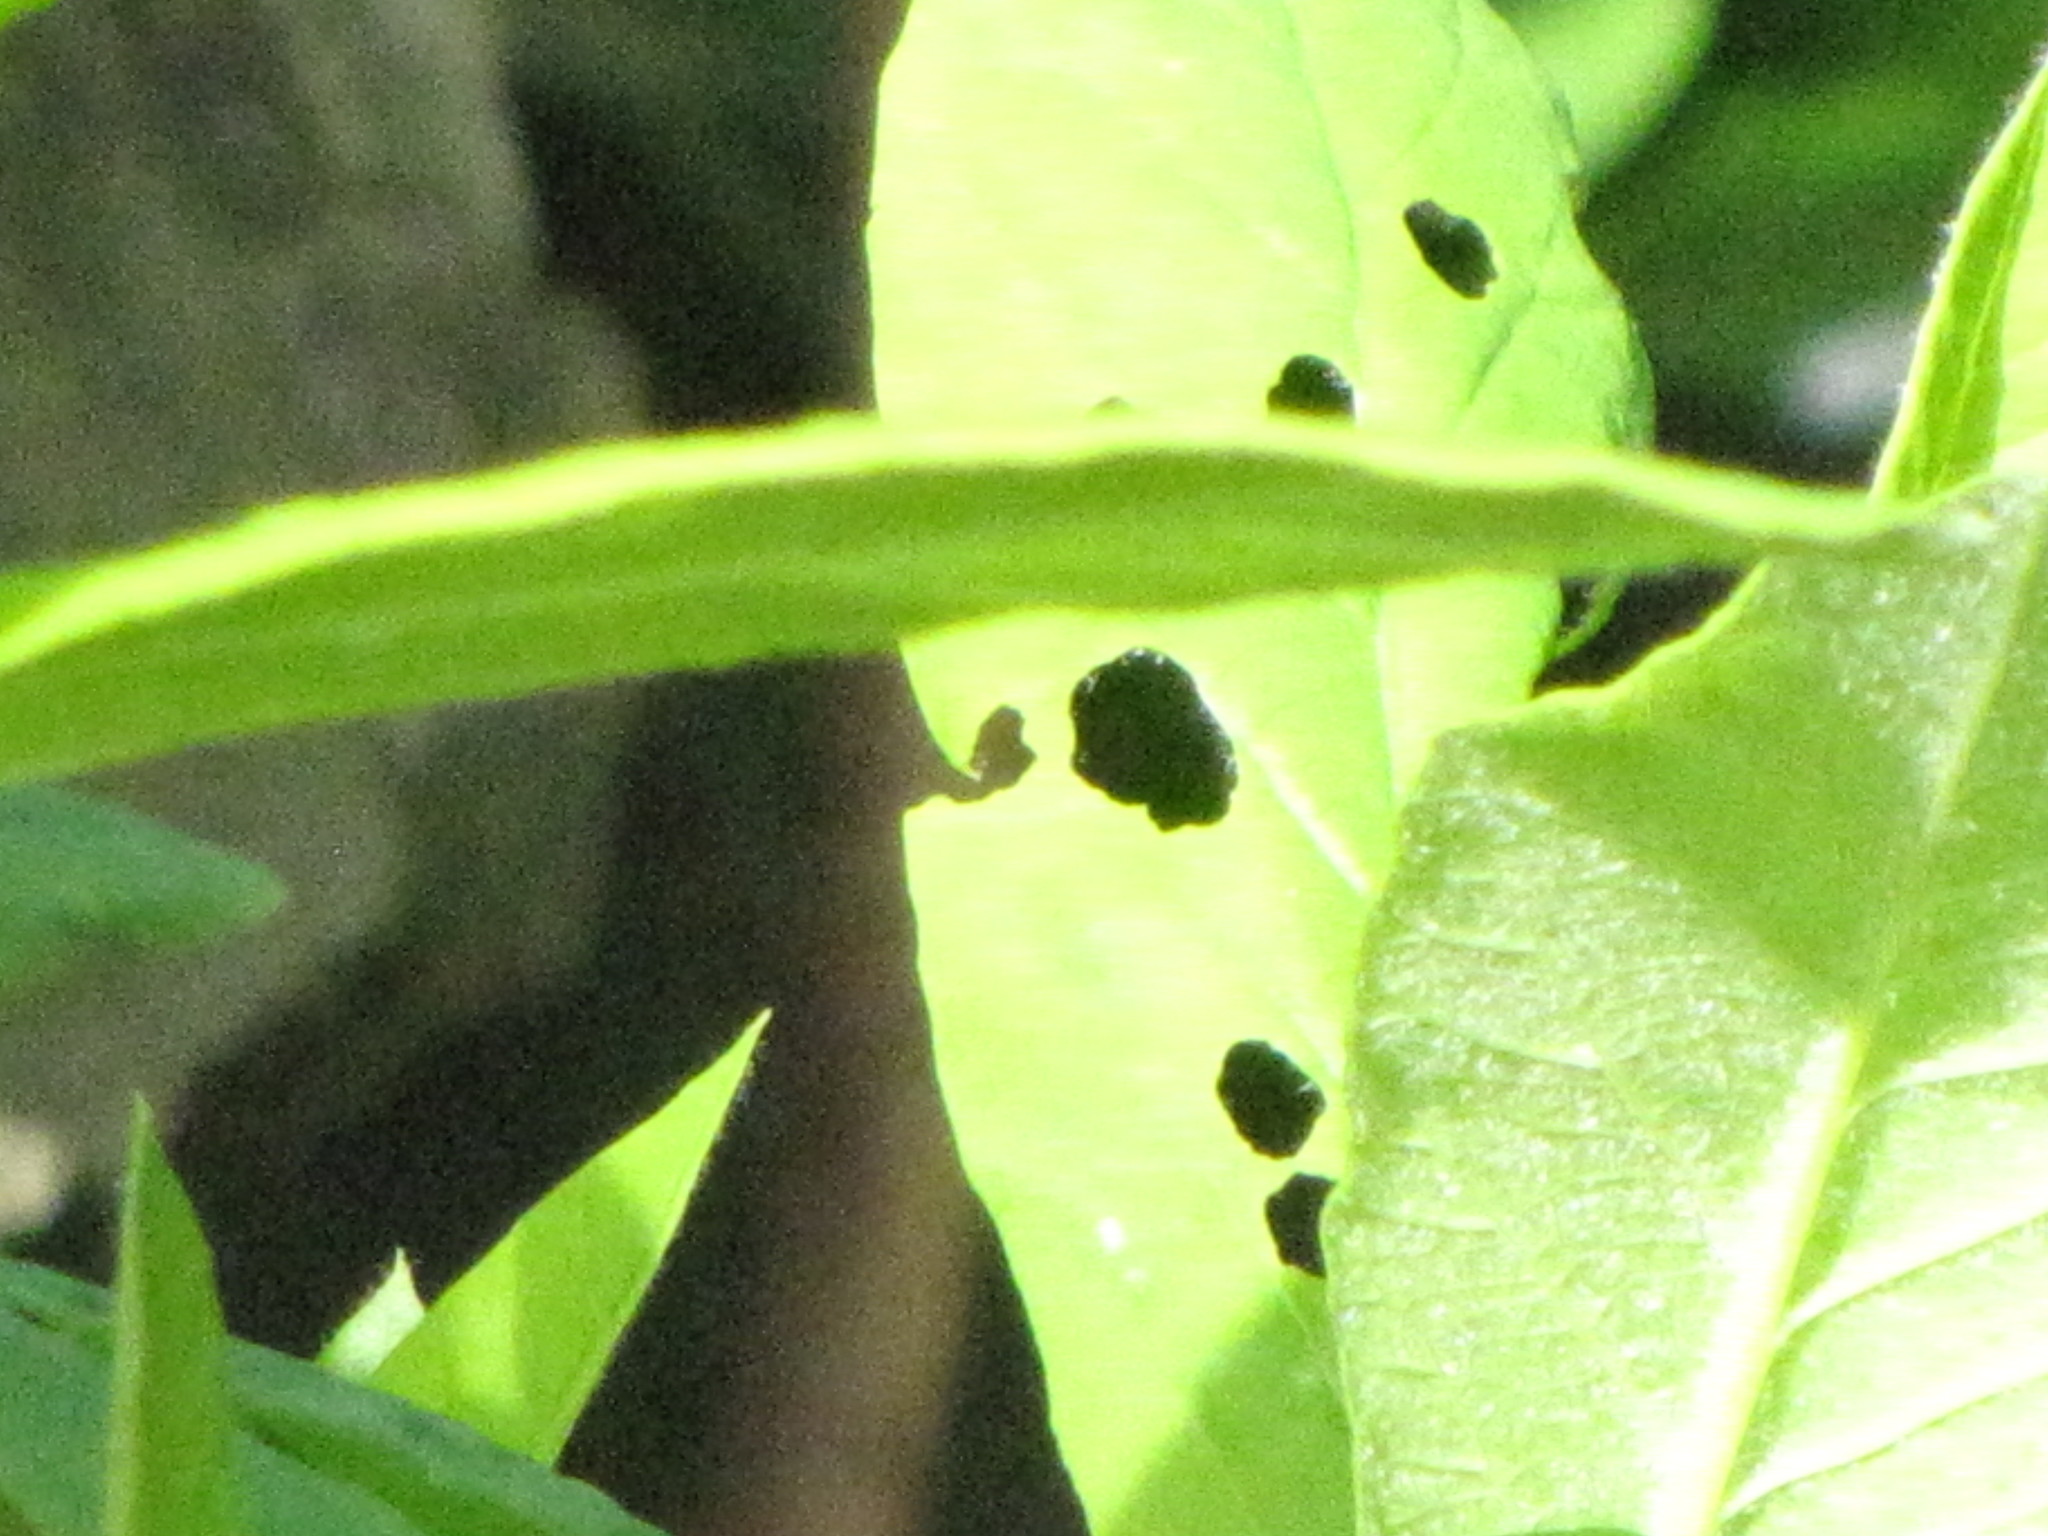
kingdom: Animalia
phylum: Arthropoda
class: Insecta
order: Lepidoptera
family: Pieridae
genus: Pieris
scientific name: Pieris rapae
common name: Small white
